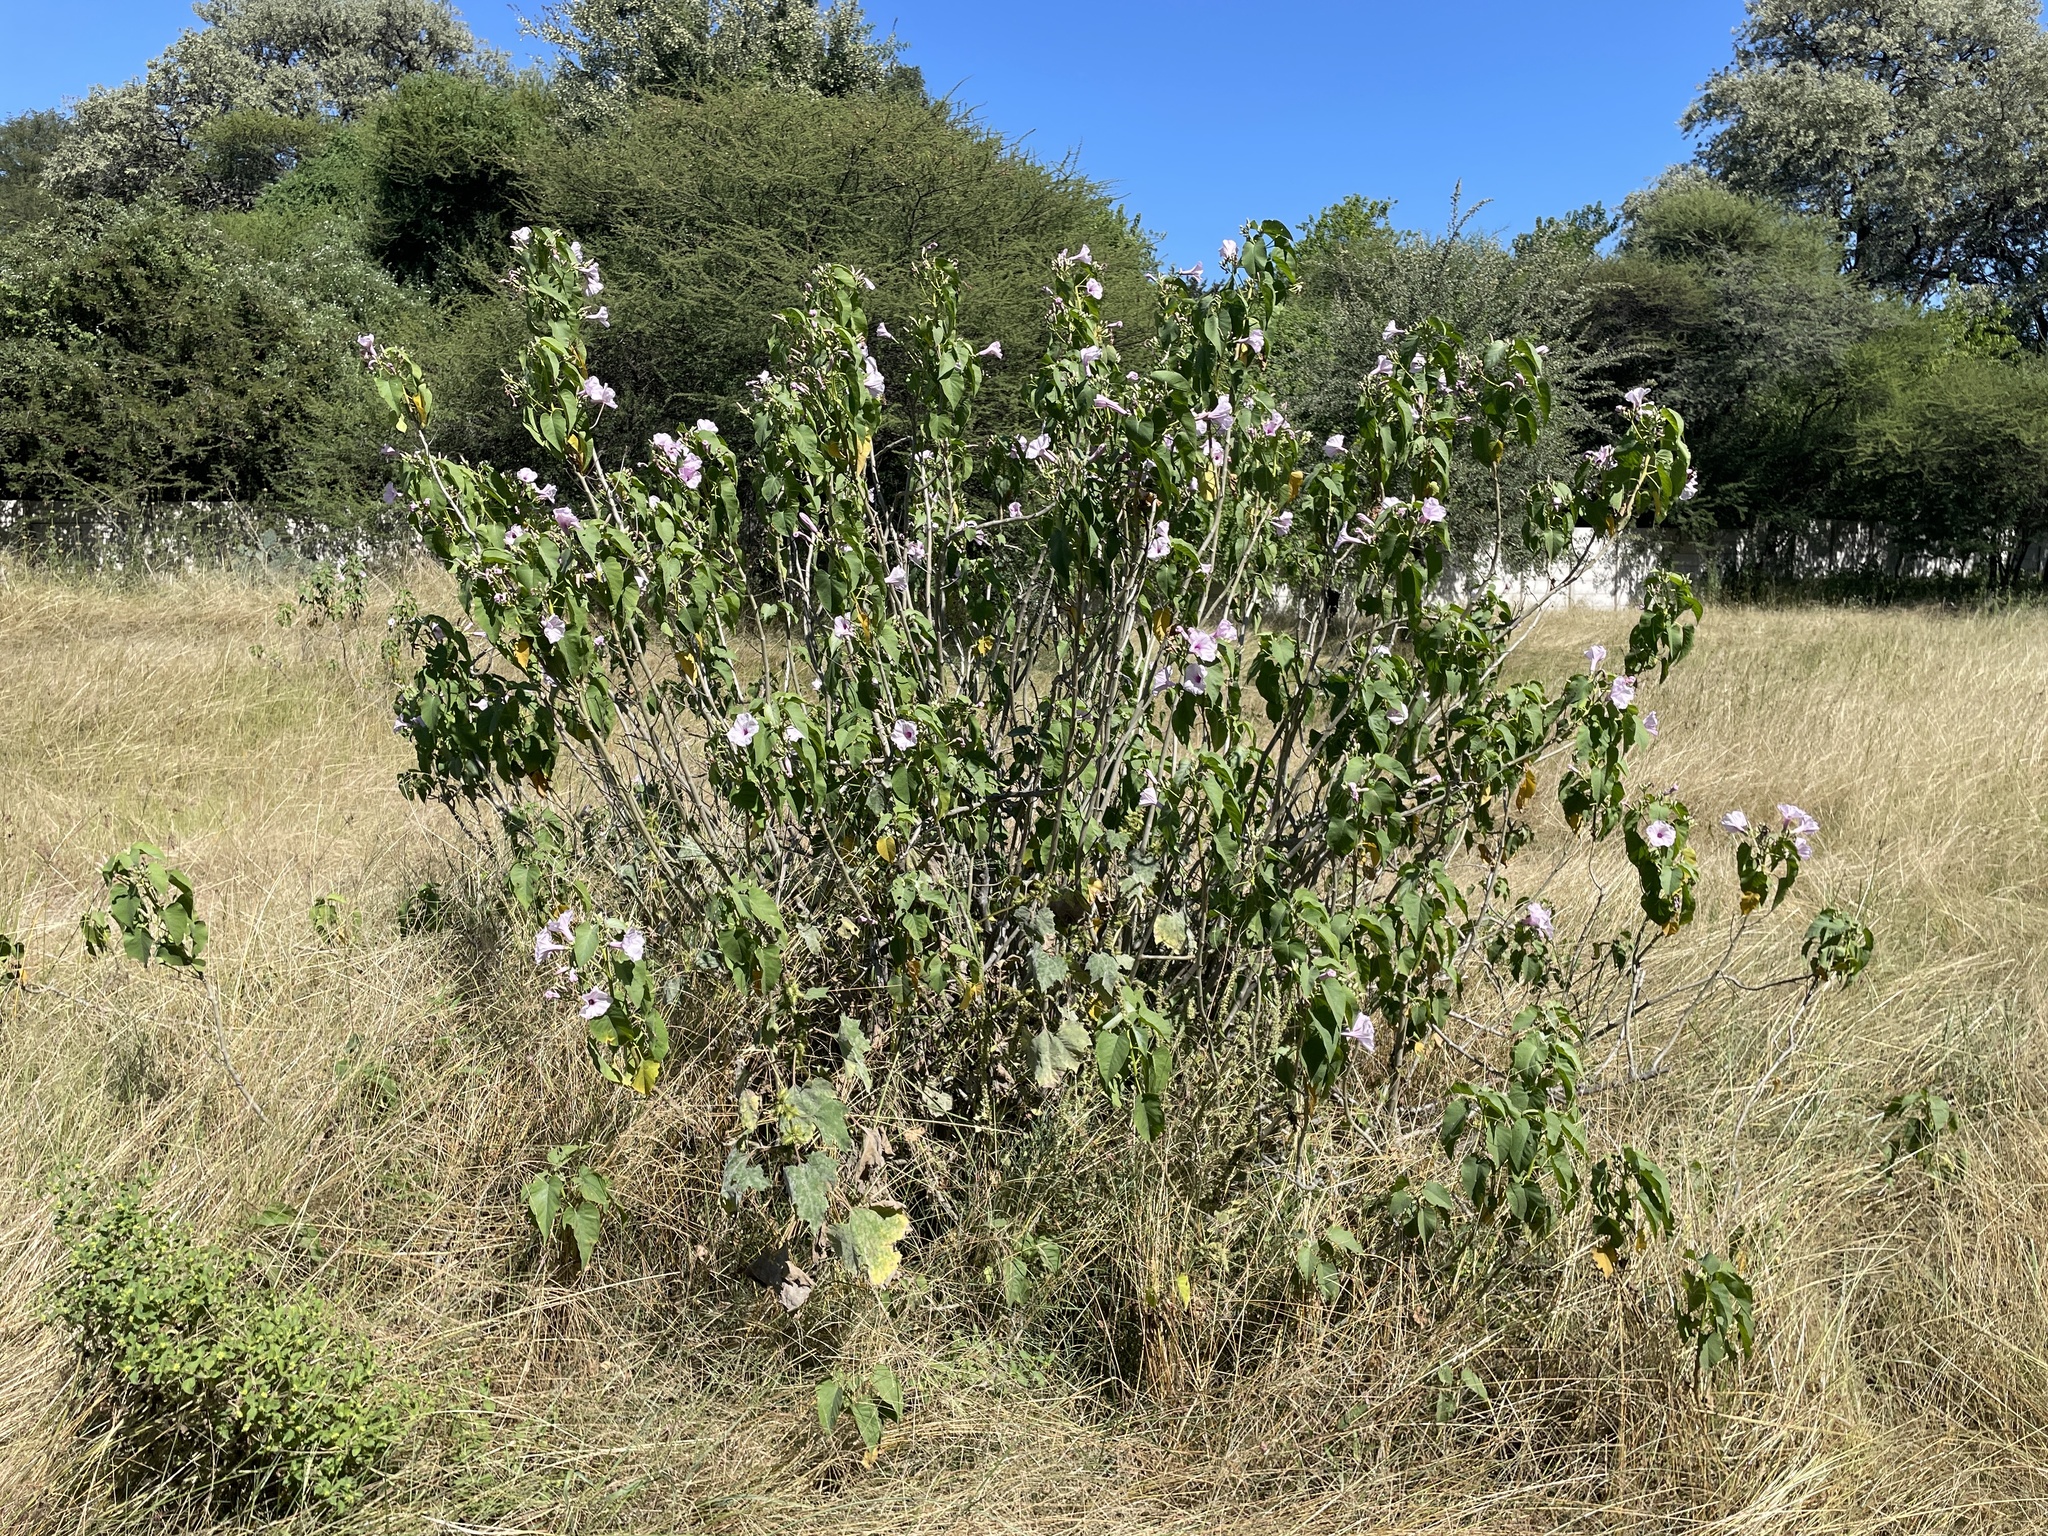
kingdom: Plantae
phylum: Tracheophyta
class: Magnoliopsida
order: Solanales
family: Convolvulaceae
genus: Ipomoea
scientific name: Ipomoea carnea
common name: Morning-glory
